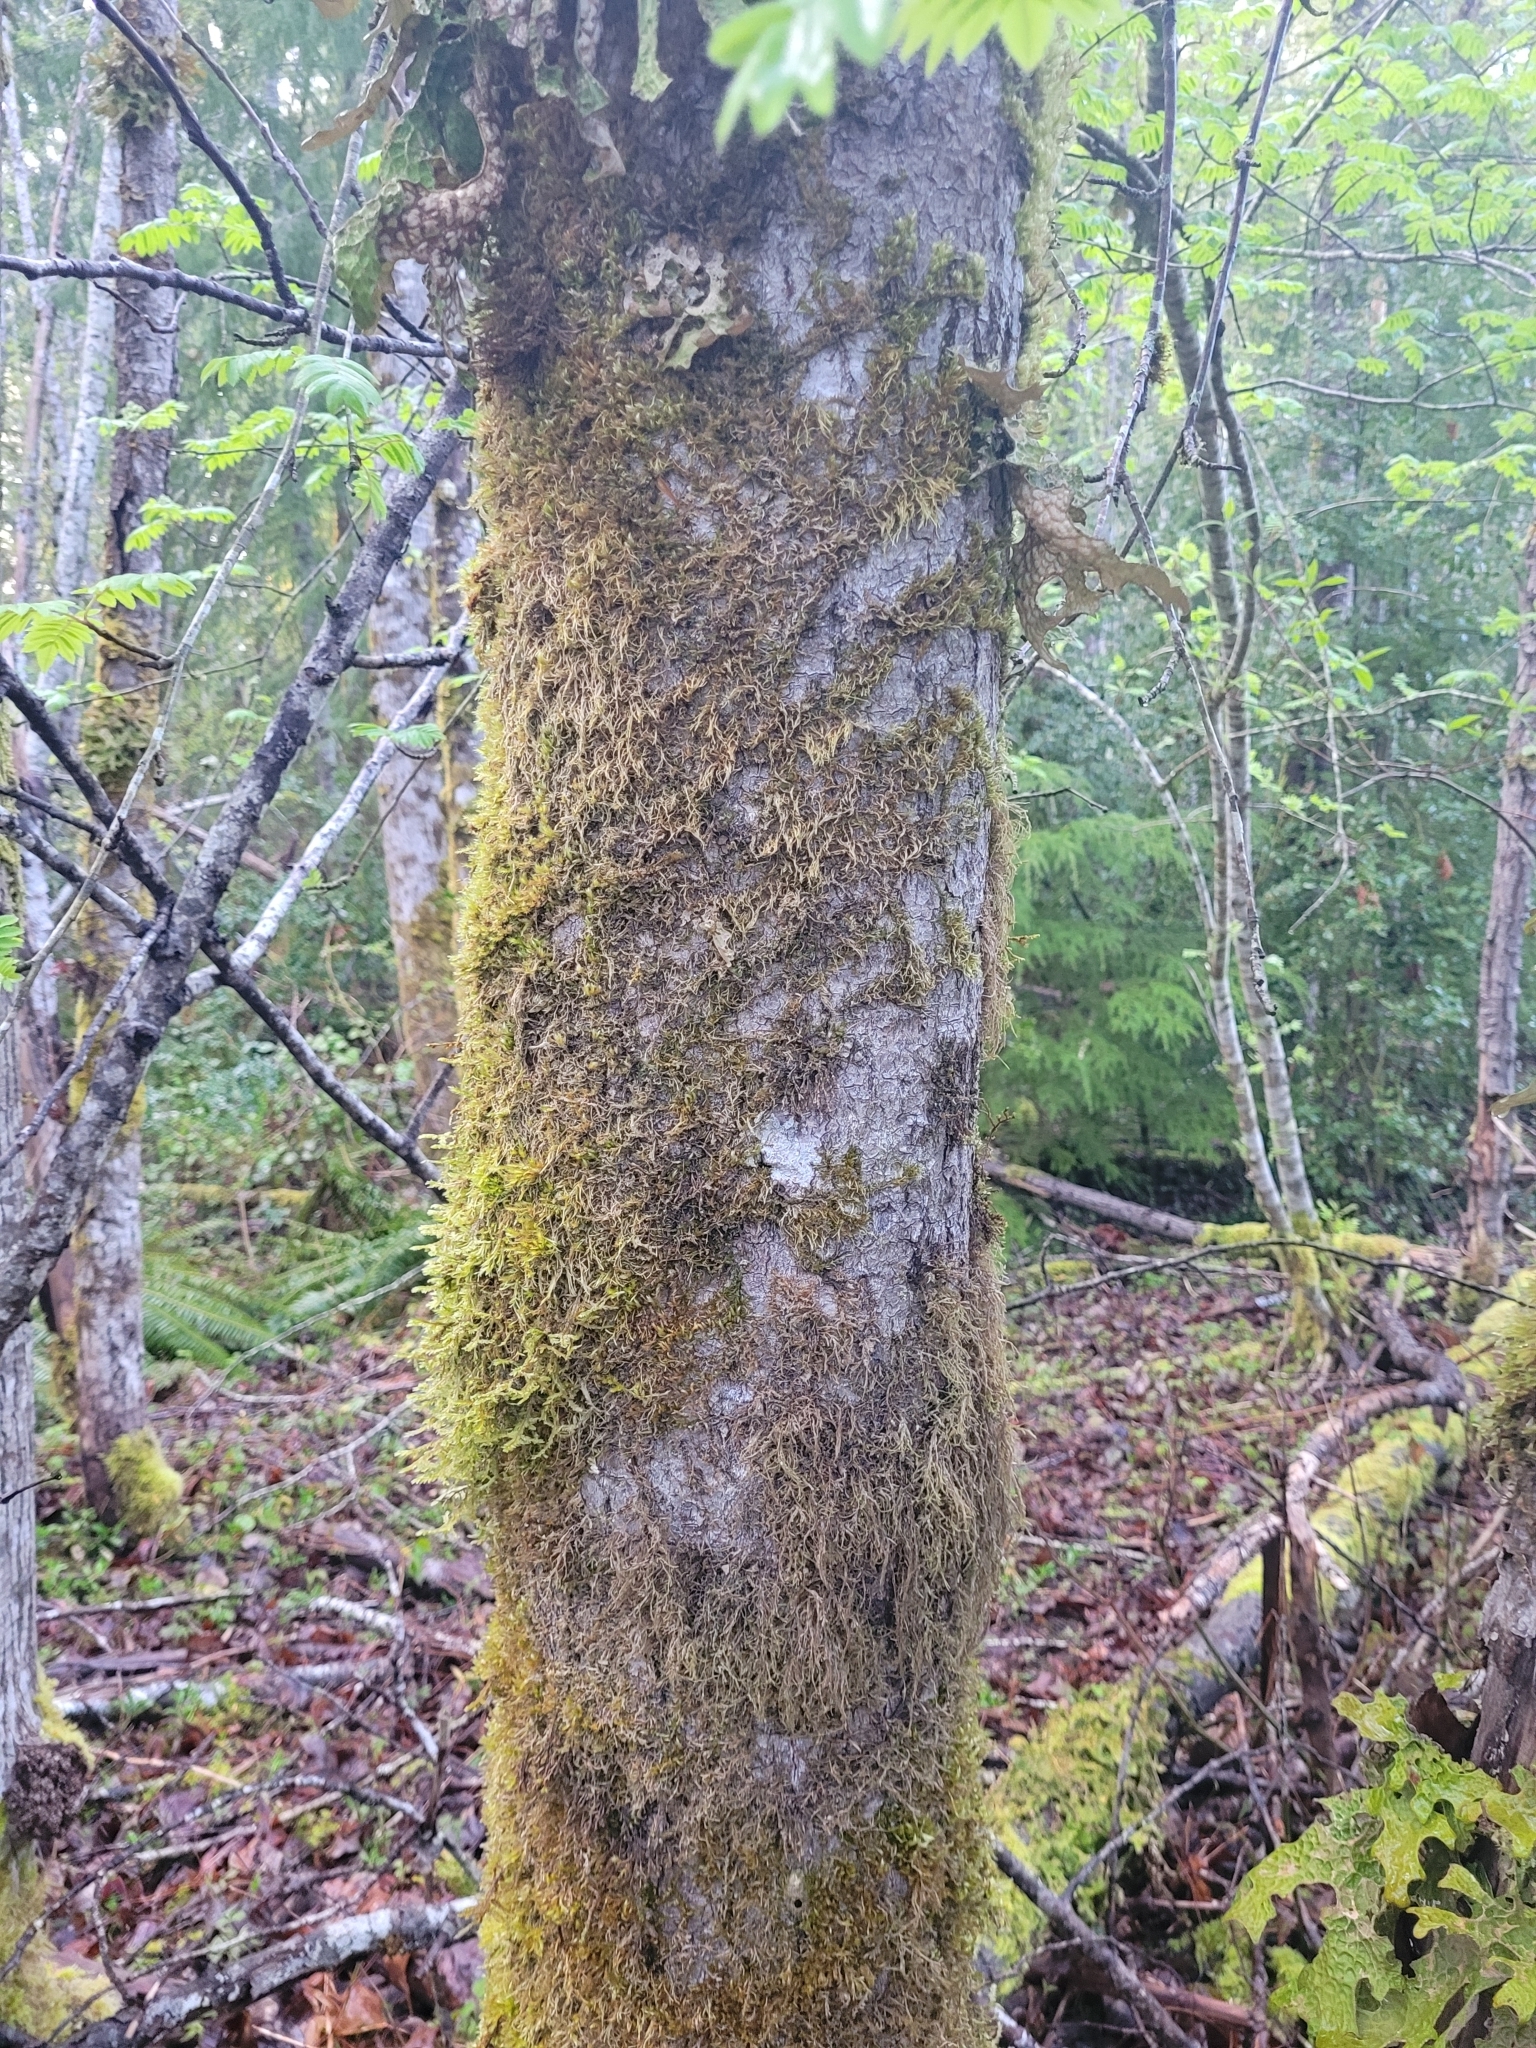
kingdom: Plantae
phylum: Tracheophyta
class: Magnoliopsida
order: Rosales
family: Rosaceae
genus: Sorbus
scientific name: Sorbus aucuparia
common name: Rowan
